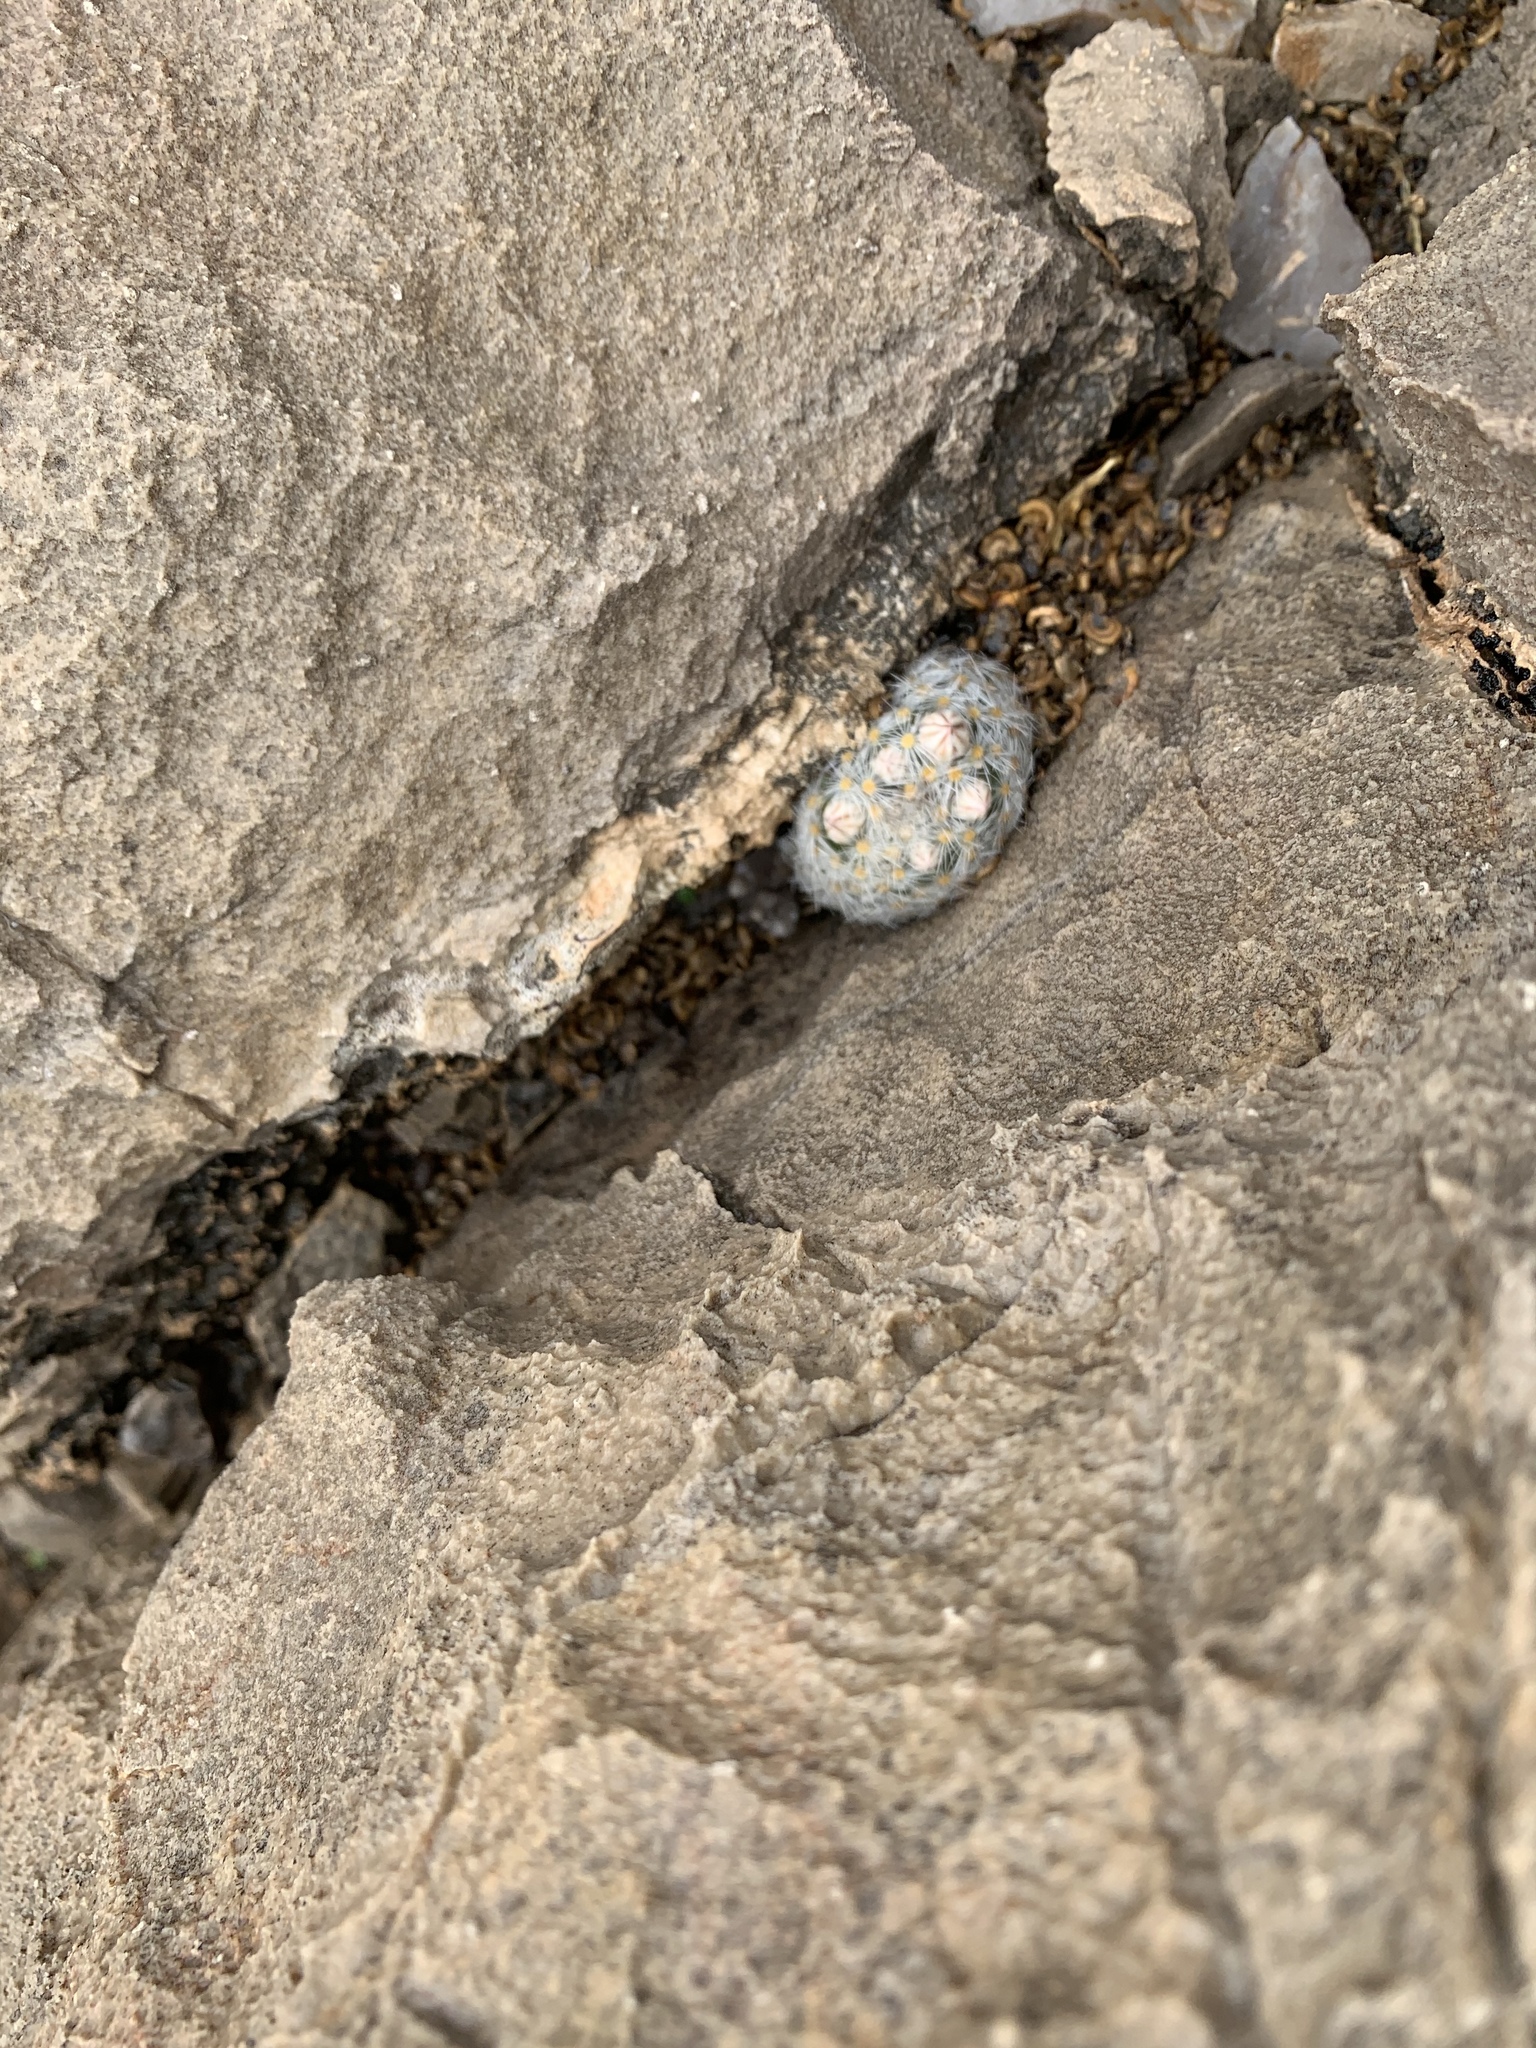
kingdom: Plantae
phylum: Tracheophyta
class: Magnoliopsida
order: Caryophyllales
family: Cactaceae
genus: Mammillaria
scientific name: Mammillaria lasiacantha
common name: Lace-spine nipple cactus
